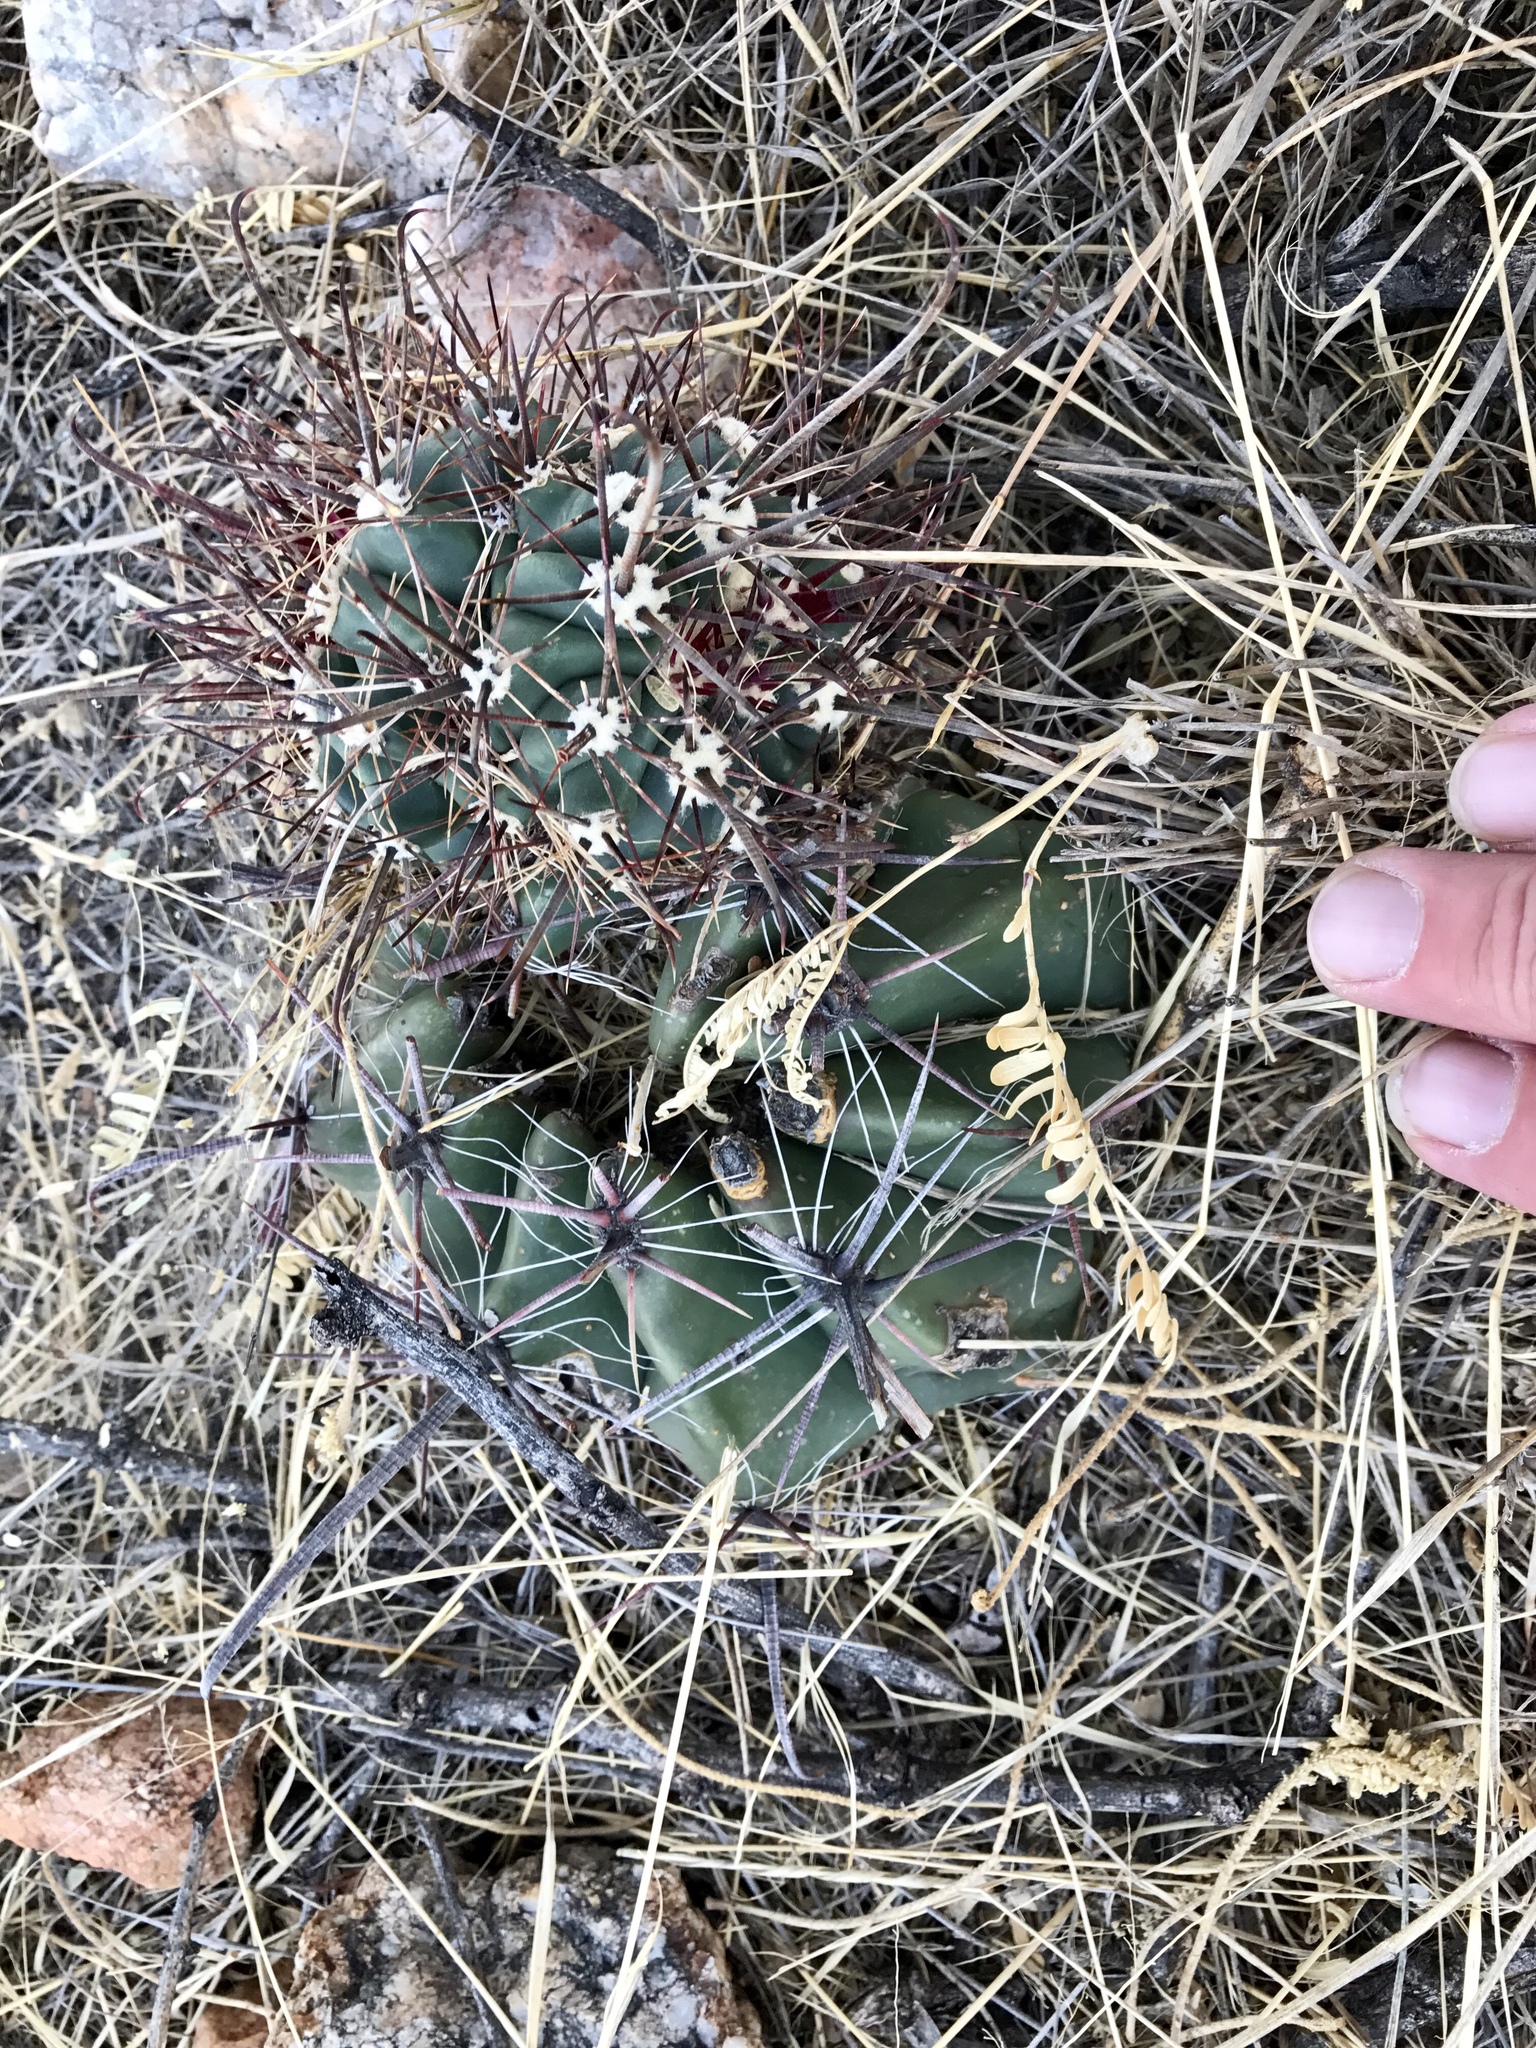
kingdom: Plantae
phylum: Tracheophyta
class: Magnoliopsida
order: Caryophyllales
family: Cactaceae
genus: Ferocactus
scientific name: Ferocactus wislizeni
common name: Candy barrel cactus
